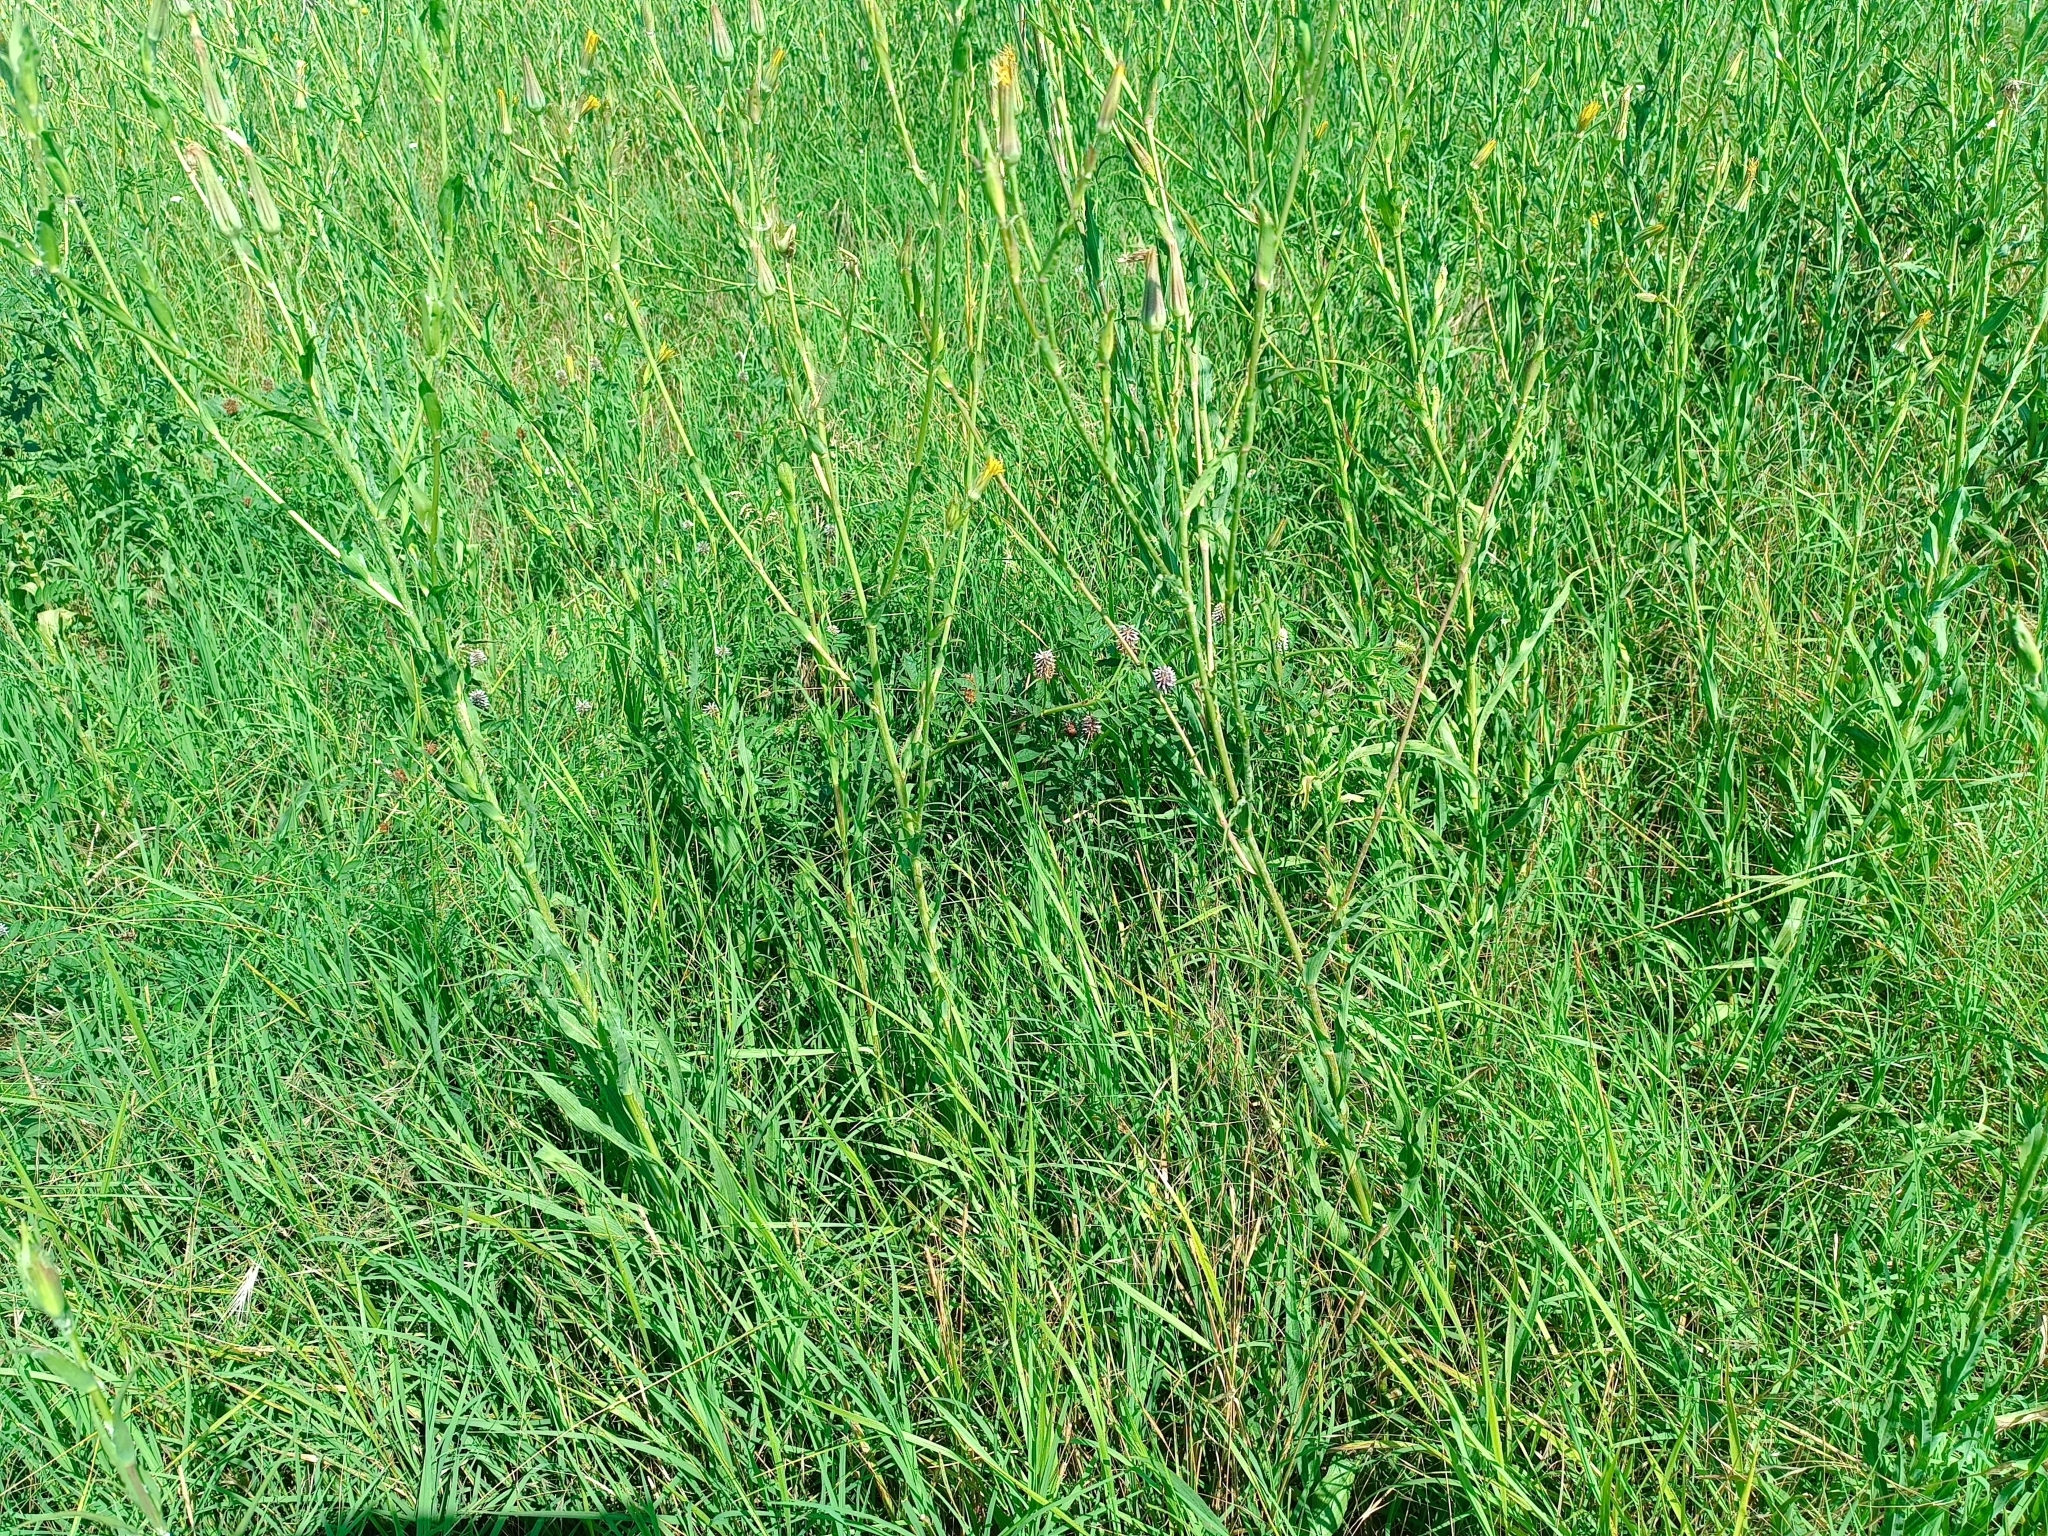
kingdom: Plantae
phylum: Tracheophyta
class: Magnoliopsida
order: Fabales
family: Fabaceae
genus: Glycyrrhiza
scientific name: Glycyrrhiza echinata
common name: German liquorice
